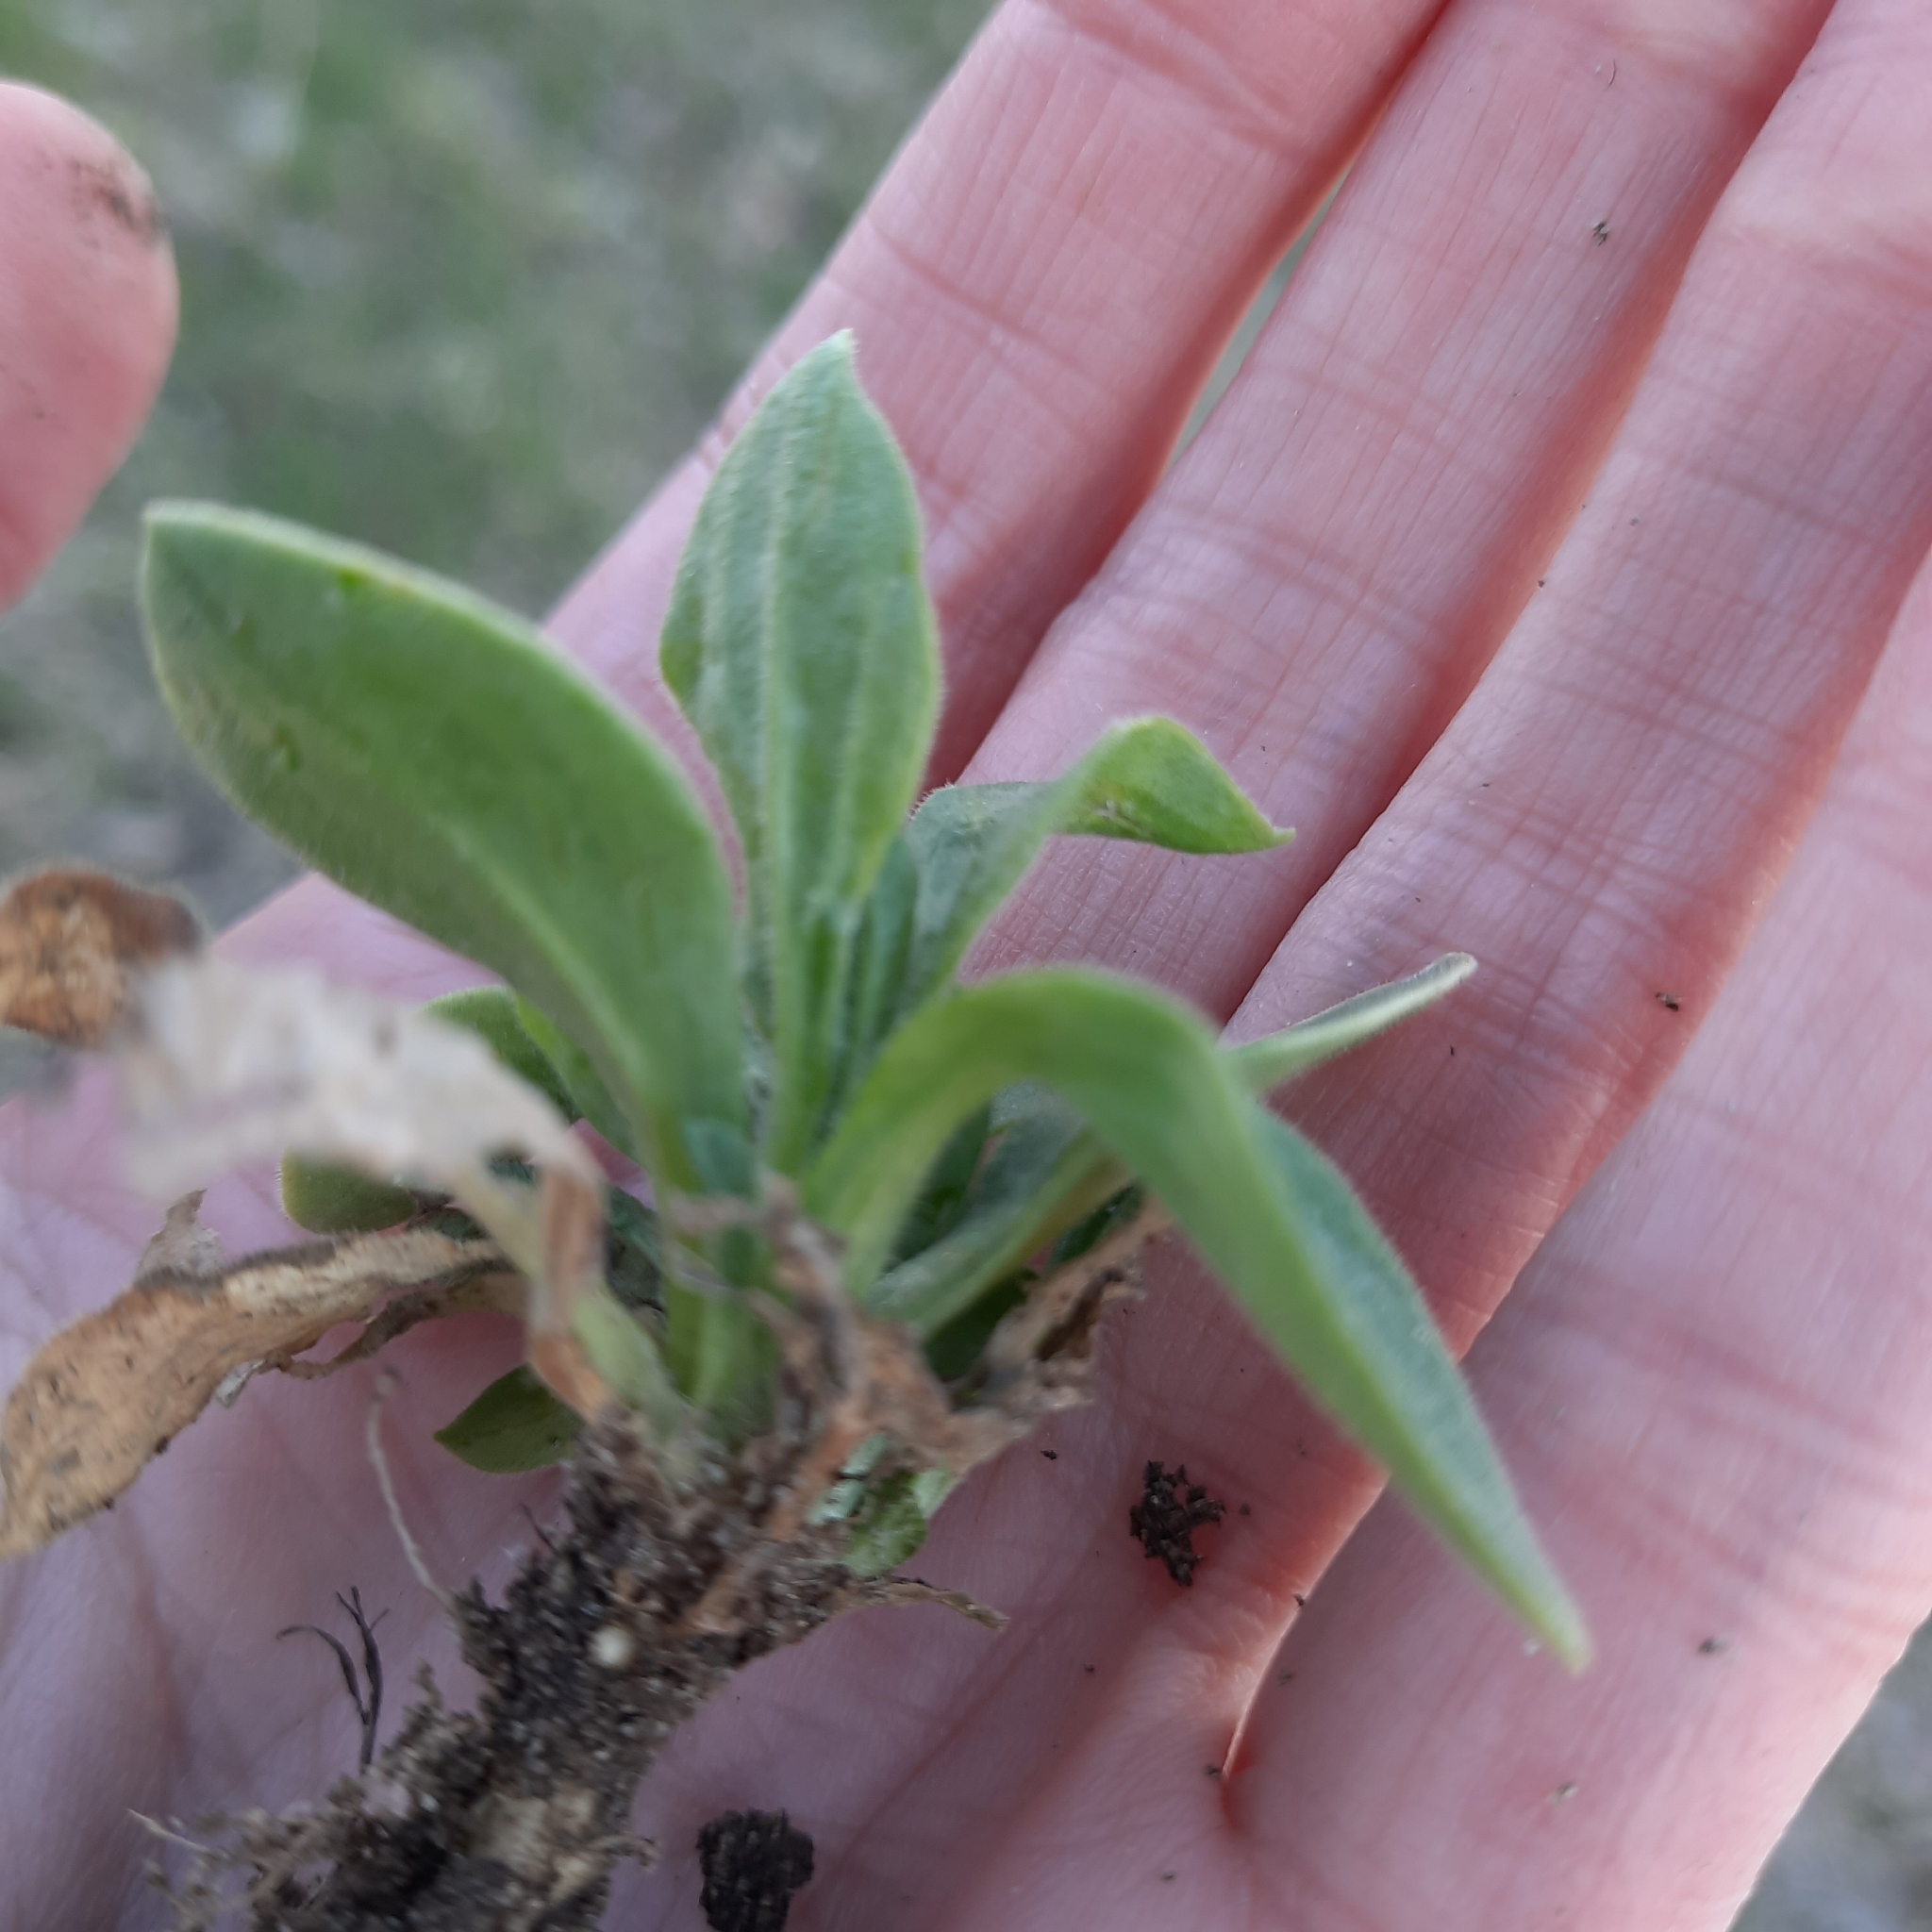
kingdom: Plantae
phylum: Tracheophyta
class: Magnoliopsida
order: Caryophyllales
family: Caryophyllaceae
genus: Silene
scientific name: Silene latifolia
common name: White campion
